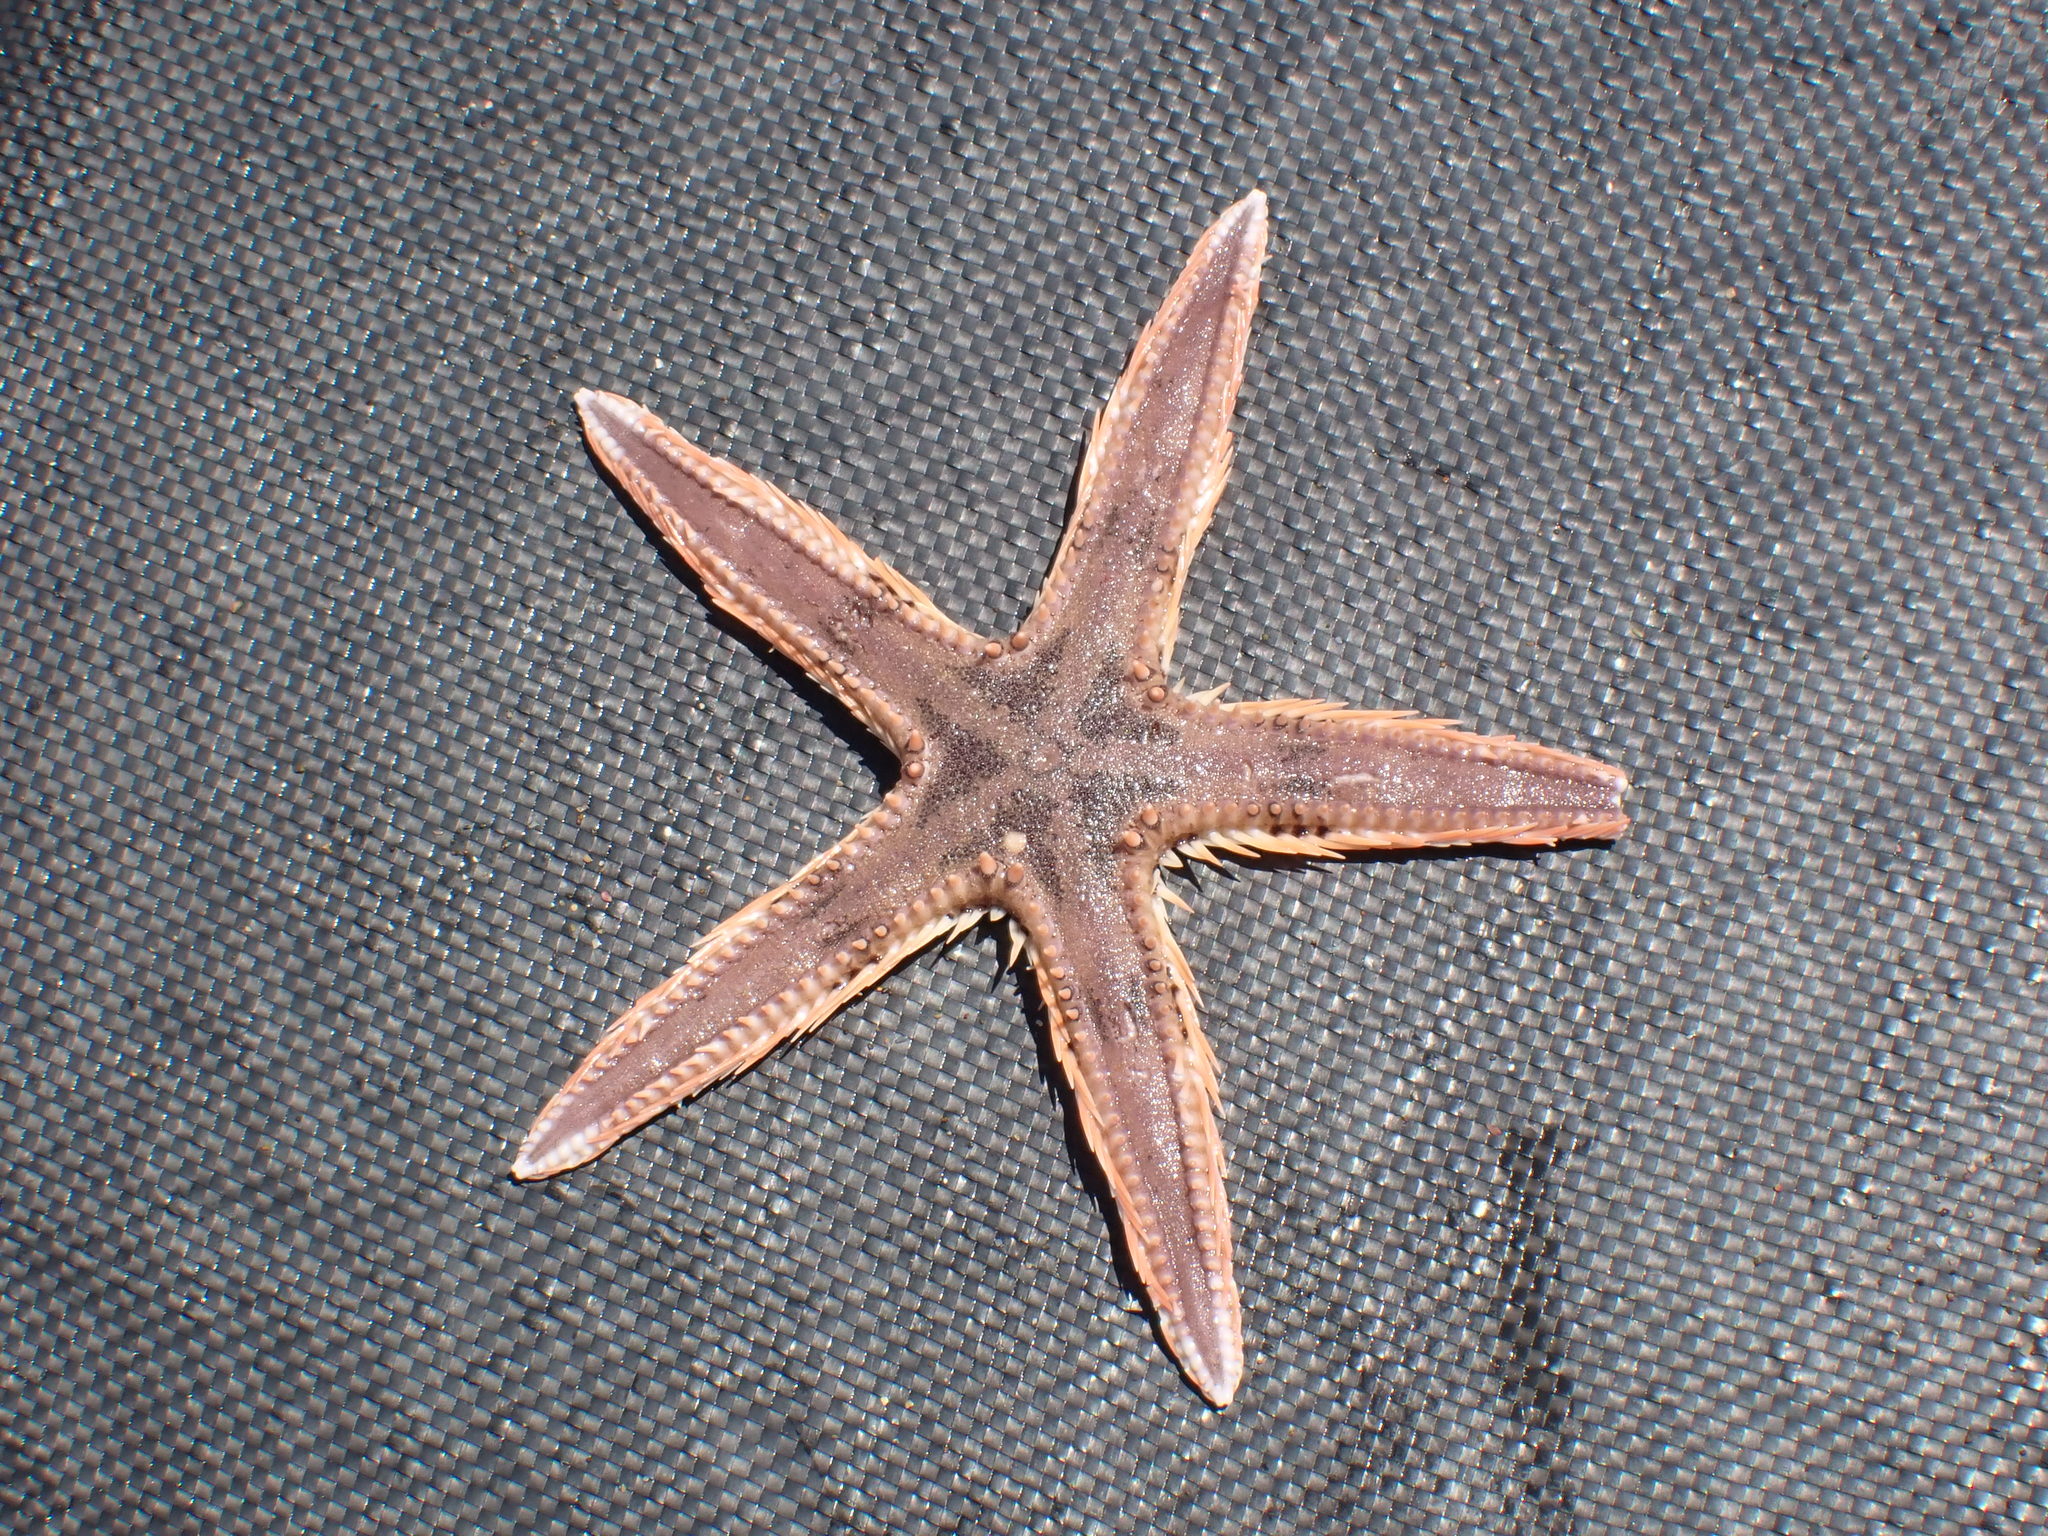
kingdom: Animalia
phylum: Echinodermata
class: Asteroidea
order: Paxillosida
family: Astropectinidae
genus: Astropecten
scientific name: Astropecten polyacanthus
